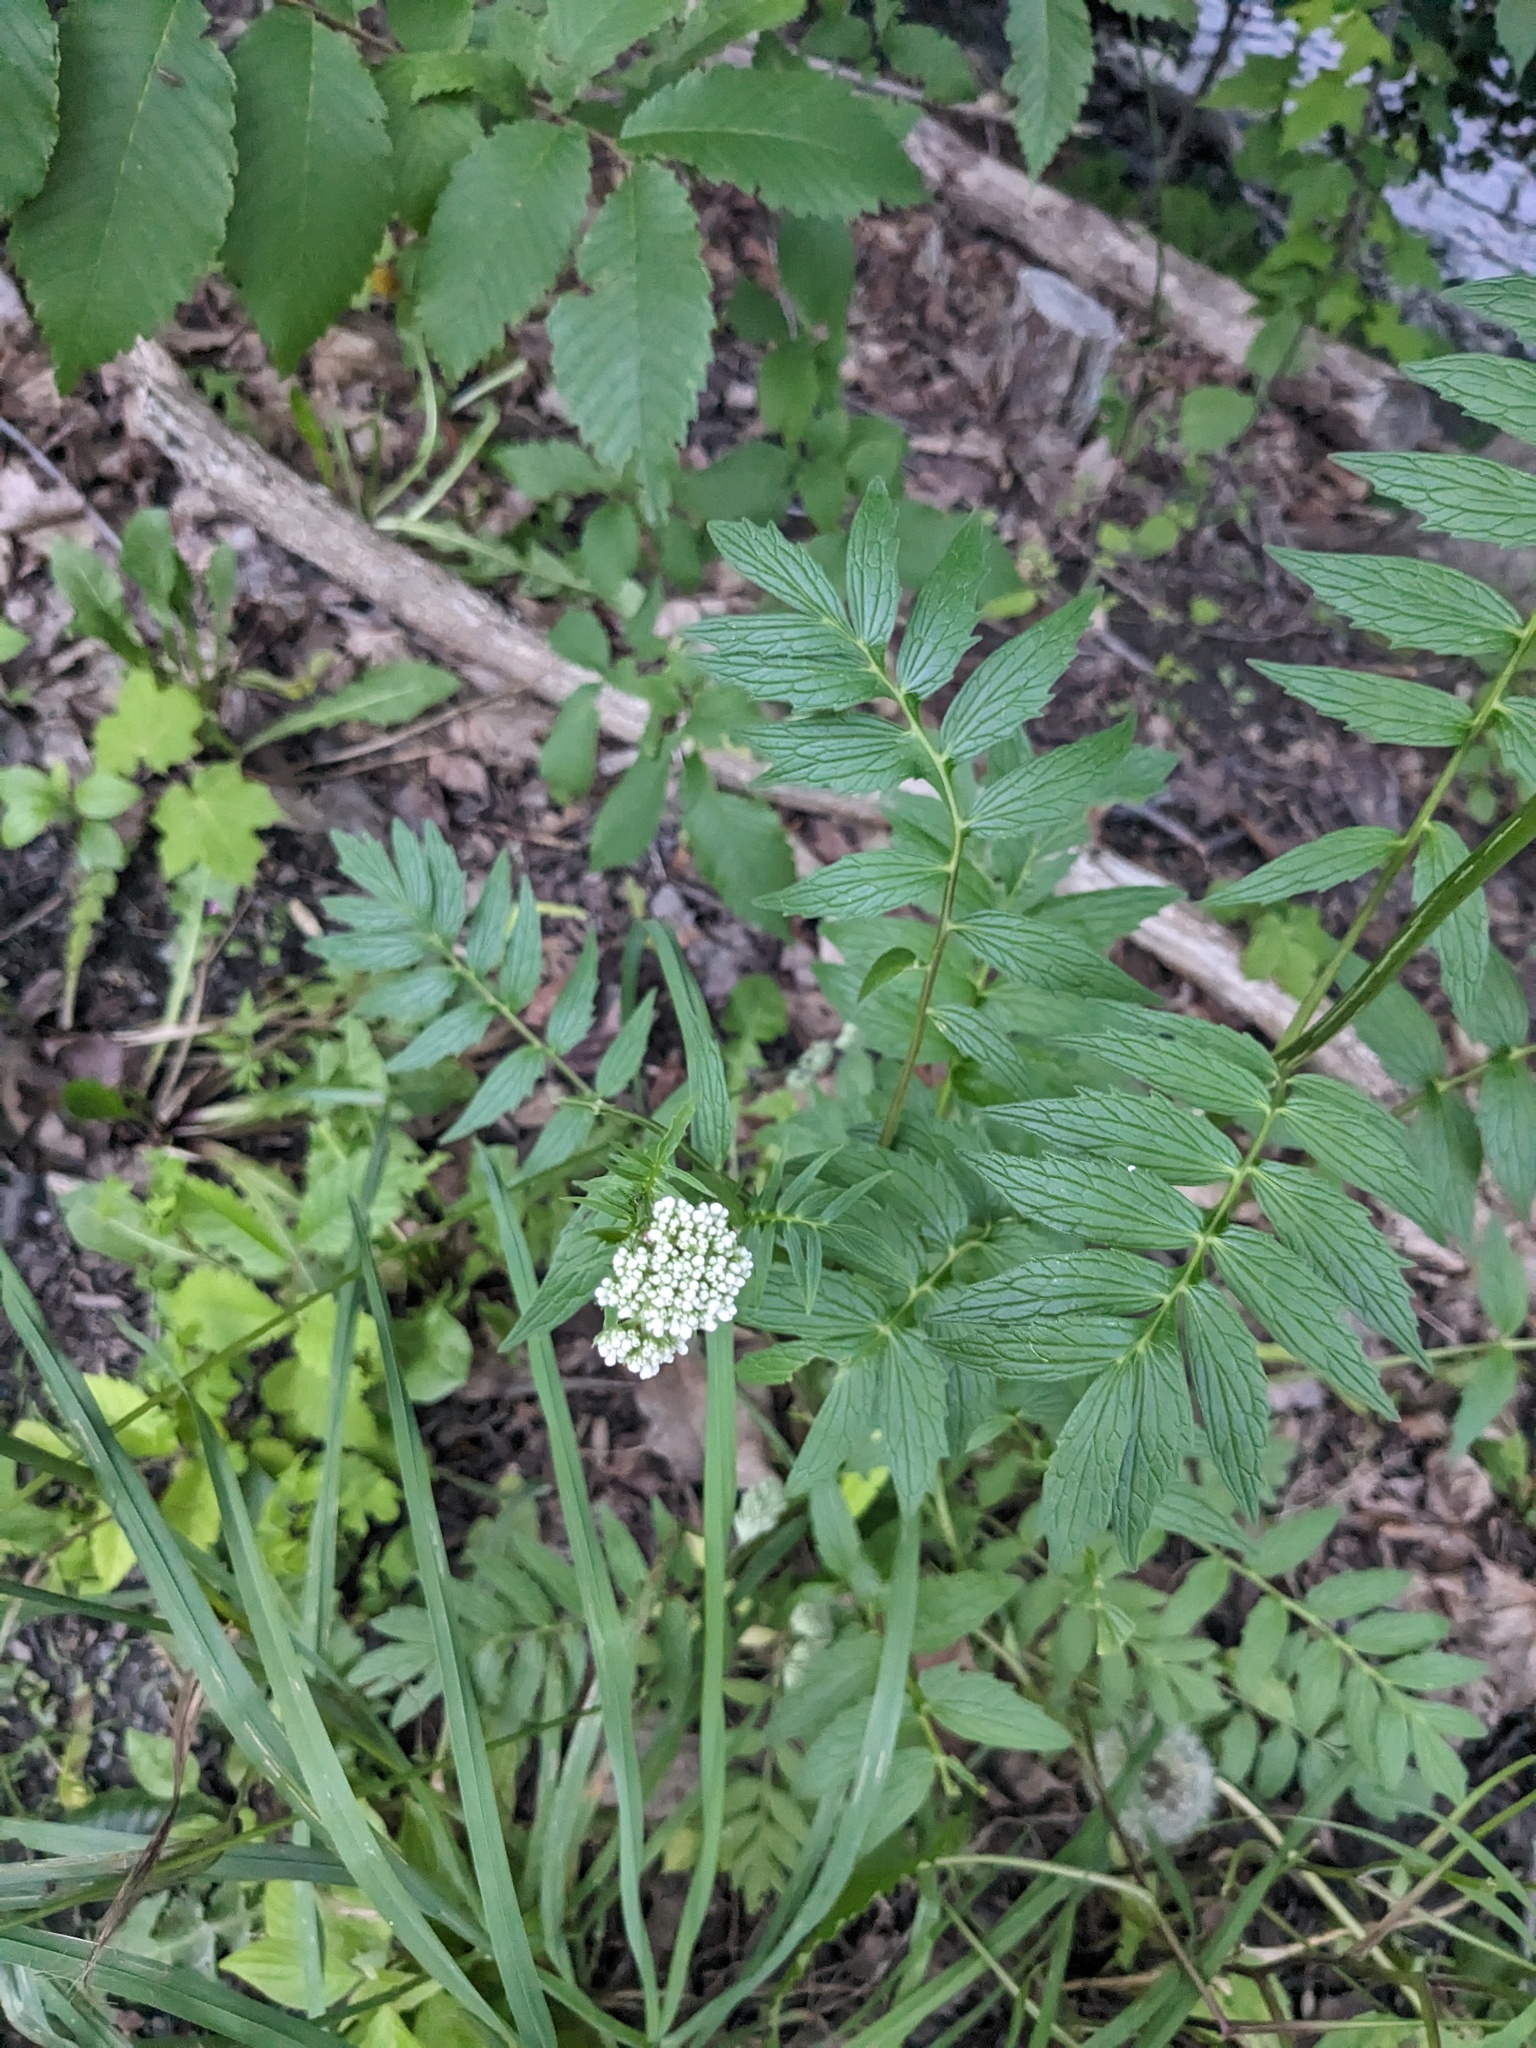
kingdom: Plantae
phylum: Tracheophyta
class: Magnoliopsida
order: Dipsacales
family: Caprifoliaceae
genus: Valeriana
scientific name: Valeriana officinalis
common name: Common valerian
